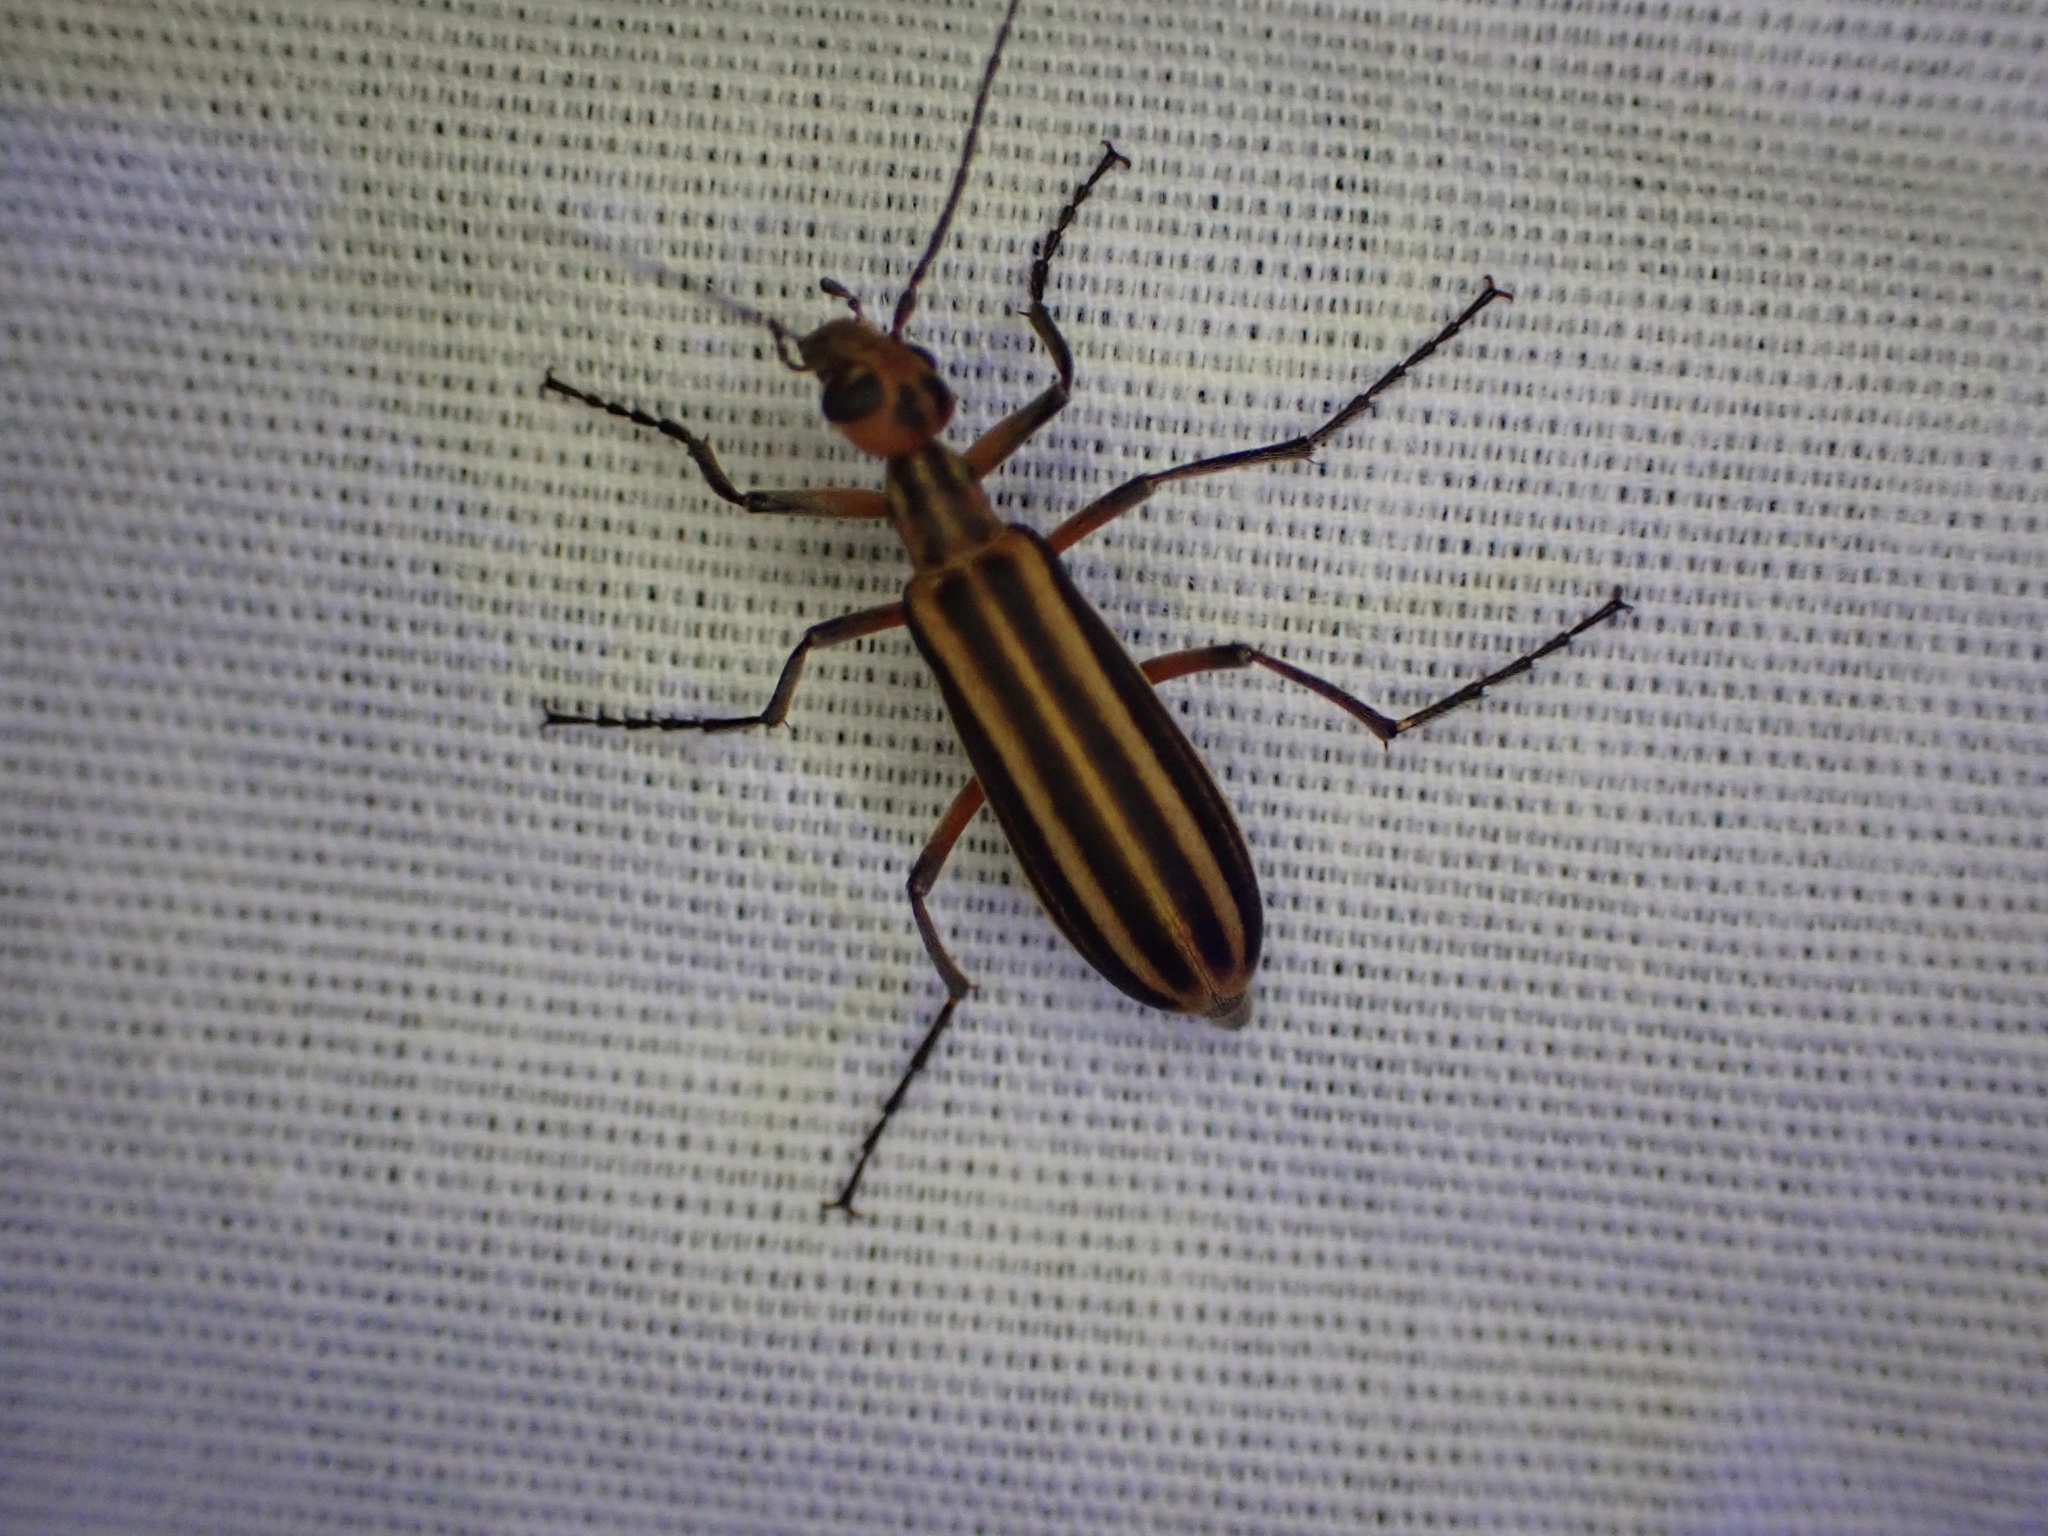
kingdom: Animalia
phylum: Arthropoda
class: Insecta
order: Coleoptera
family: Meloidae
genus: Epicauta
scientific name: Epicauta vittata
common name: Old-fashioned potato beetle
